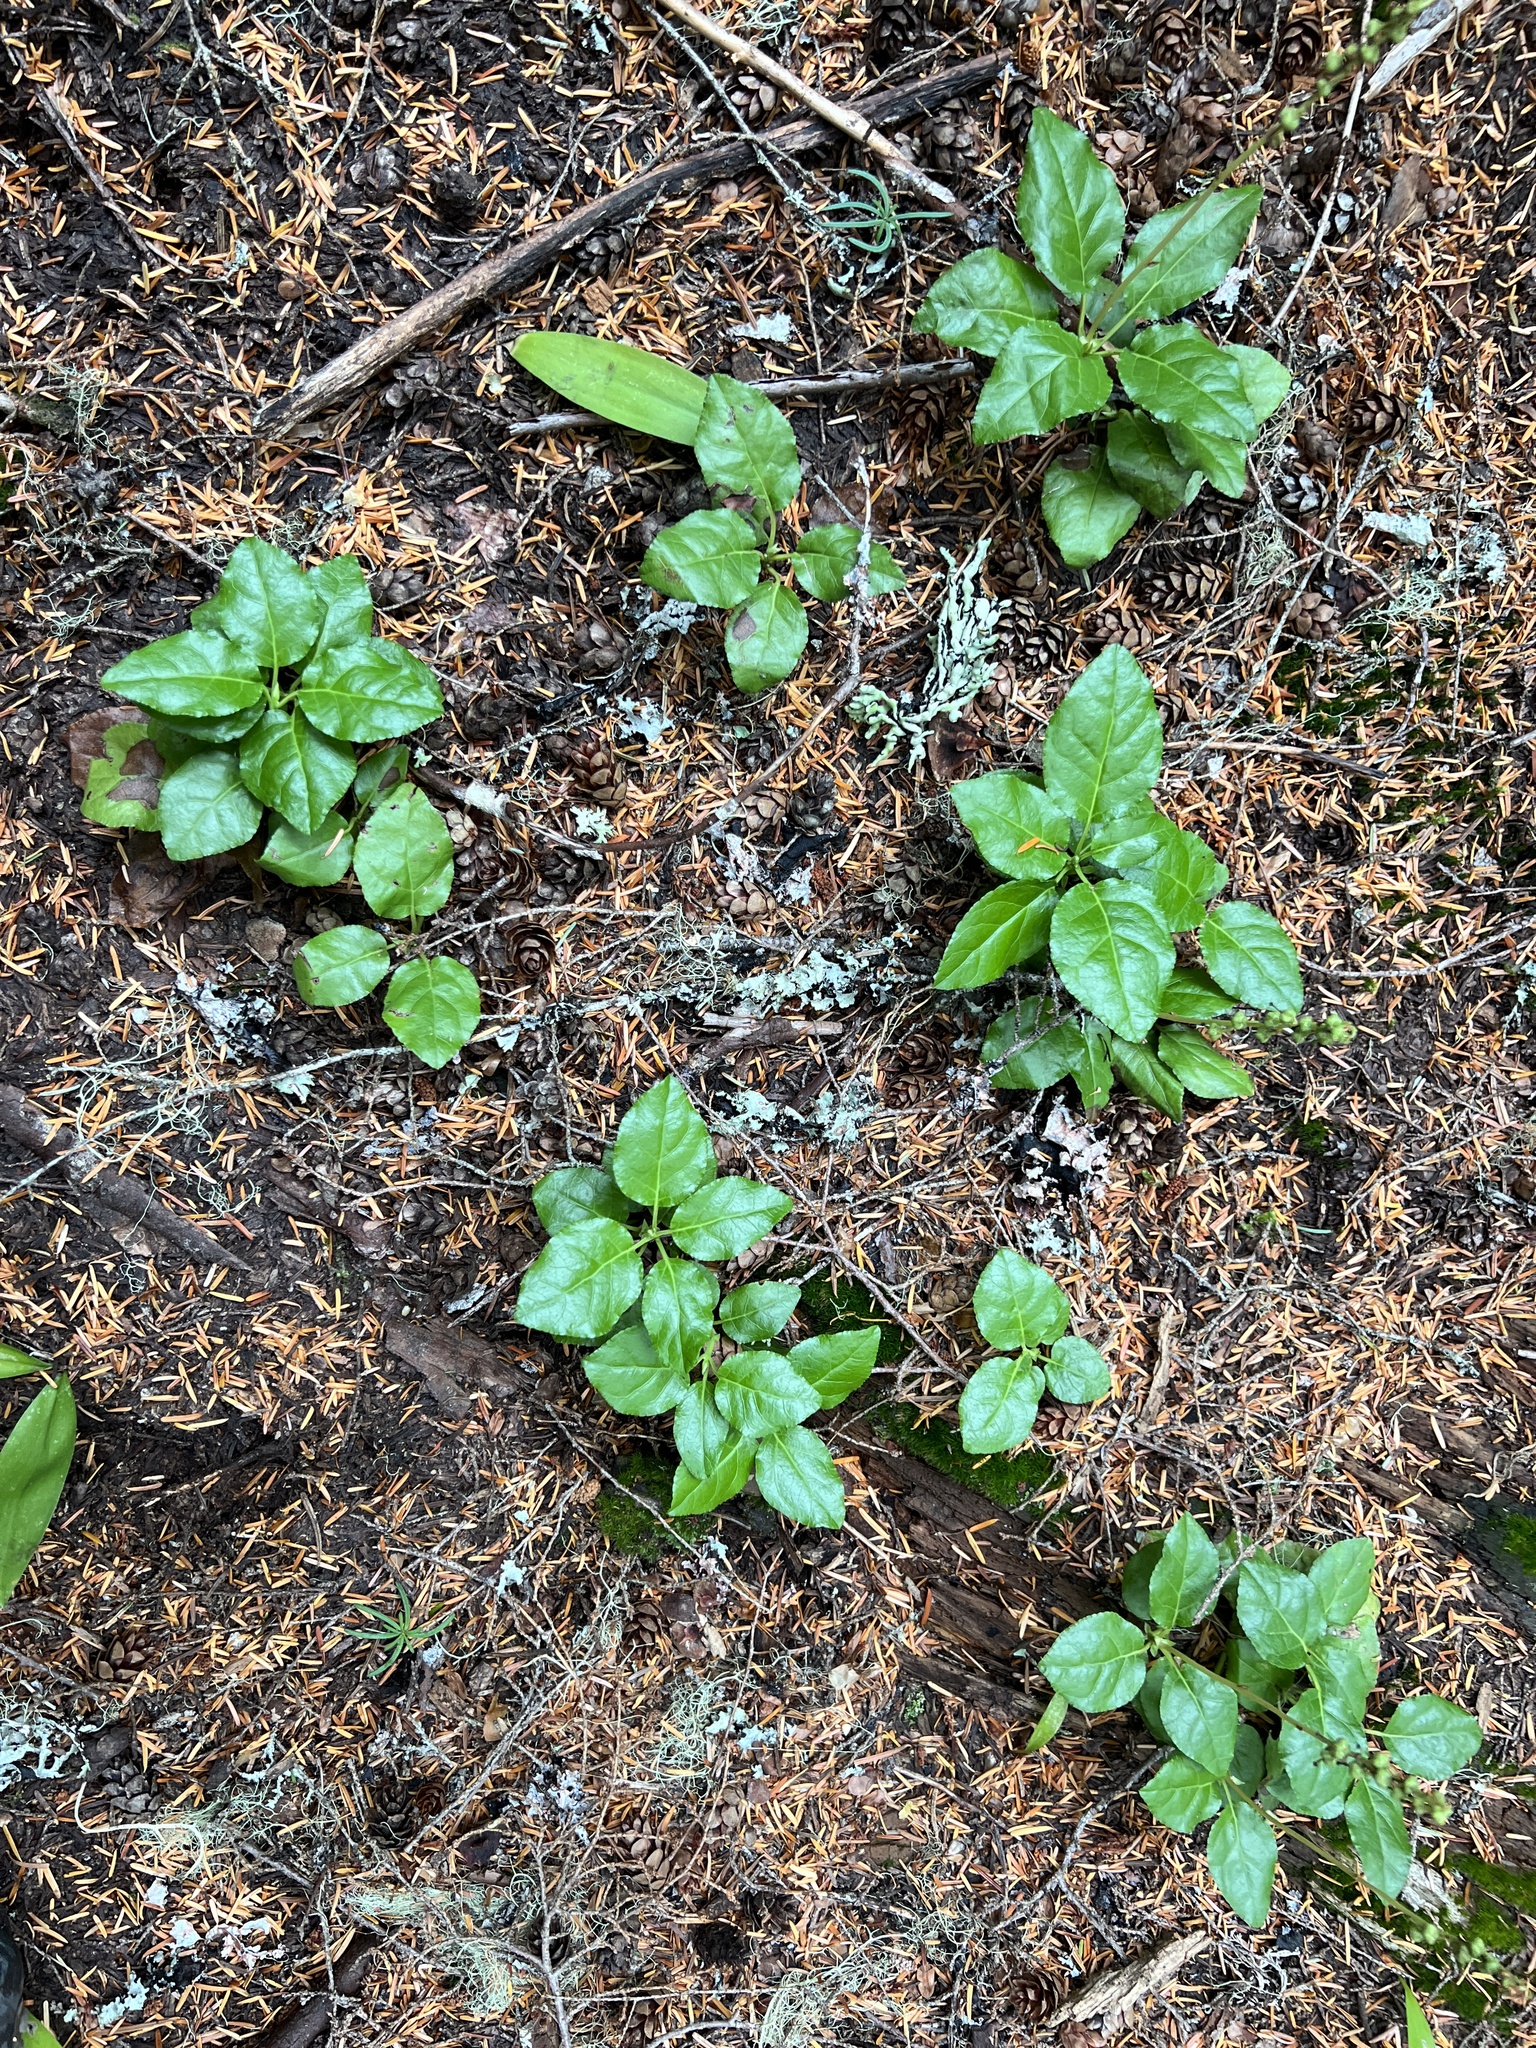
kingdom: Plantae
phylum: Tracheophyta
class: Magnoliopsida
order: Ericales
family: Ericaceae
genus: Orthilia
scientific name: Orthilia secunda
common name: One-sided orthilia
